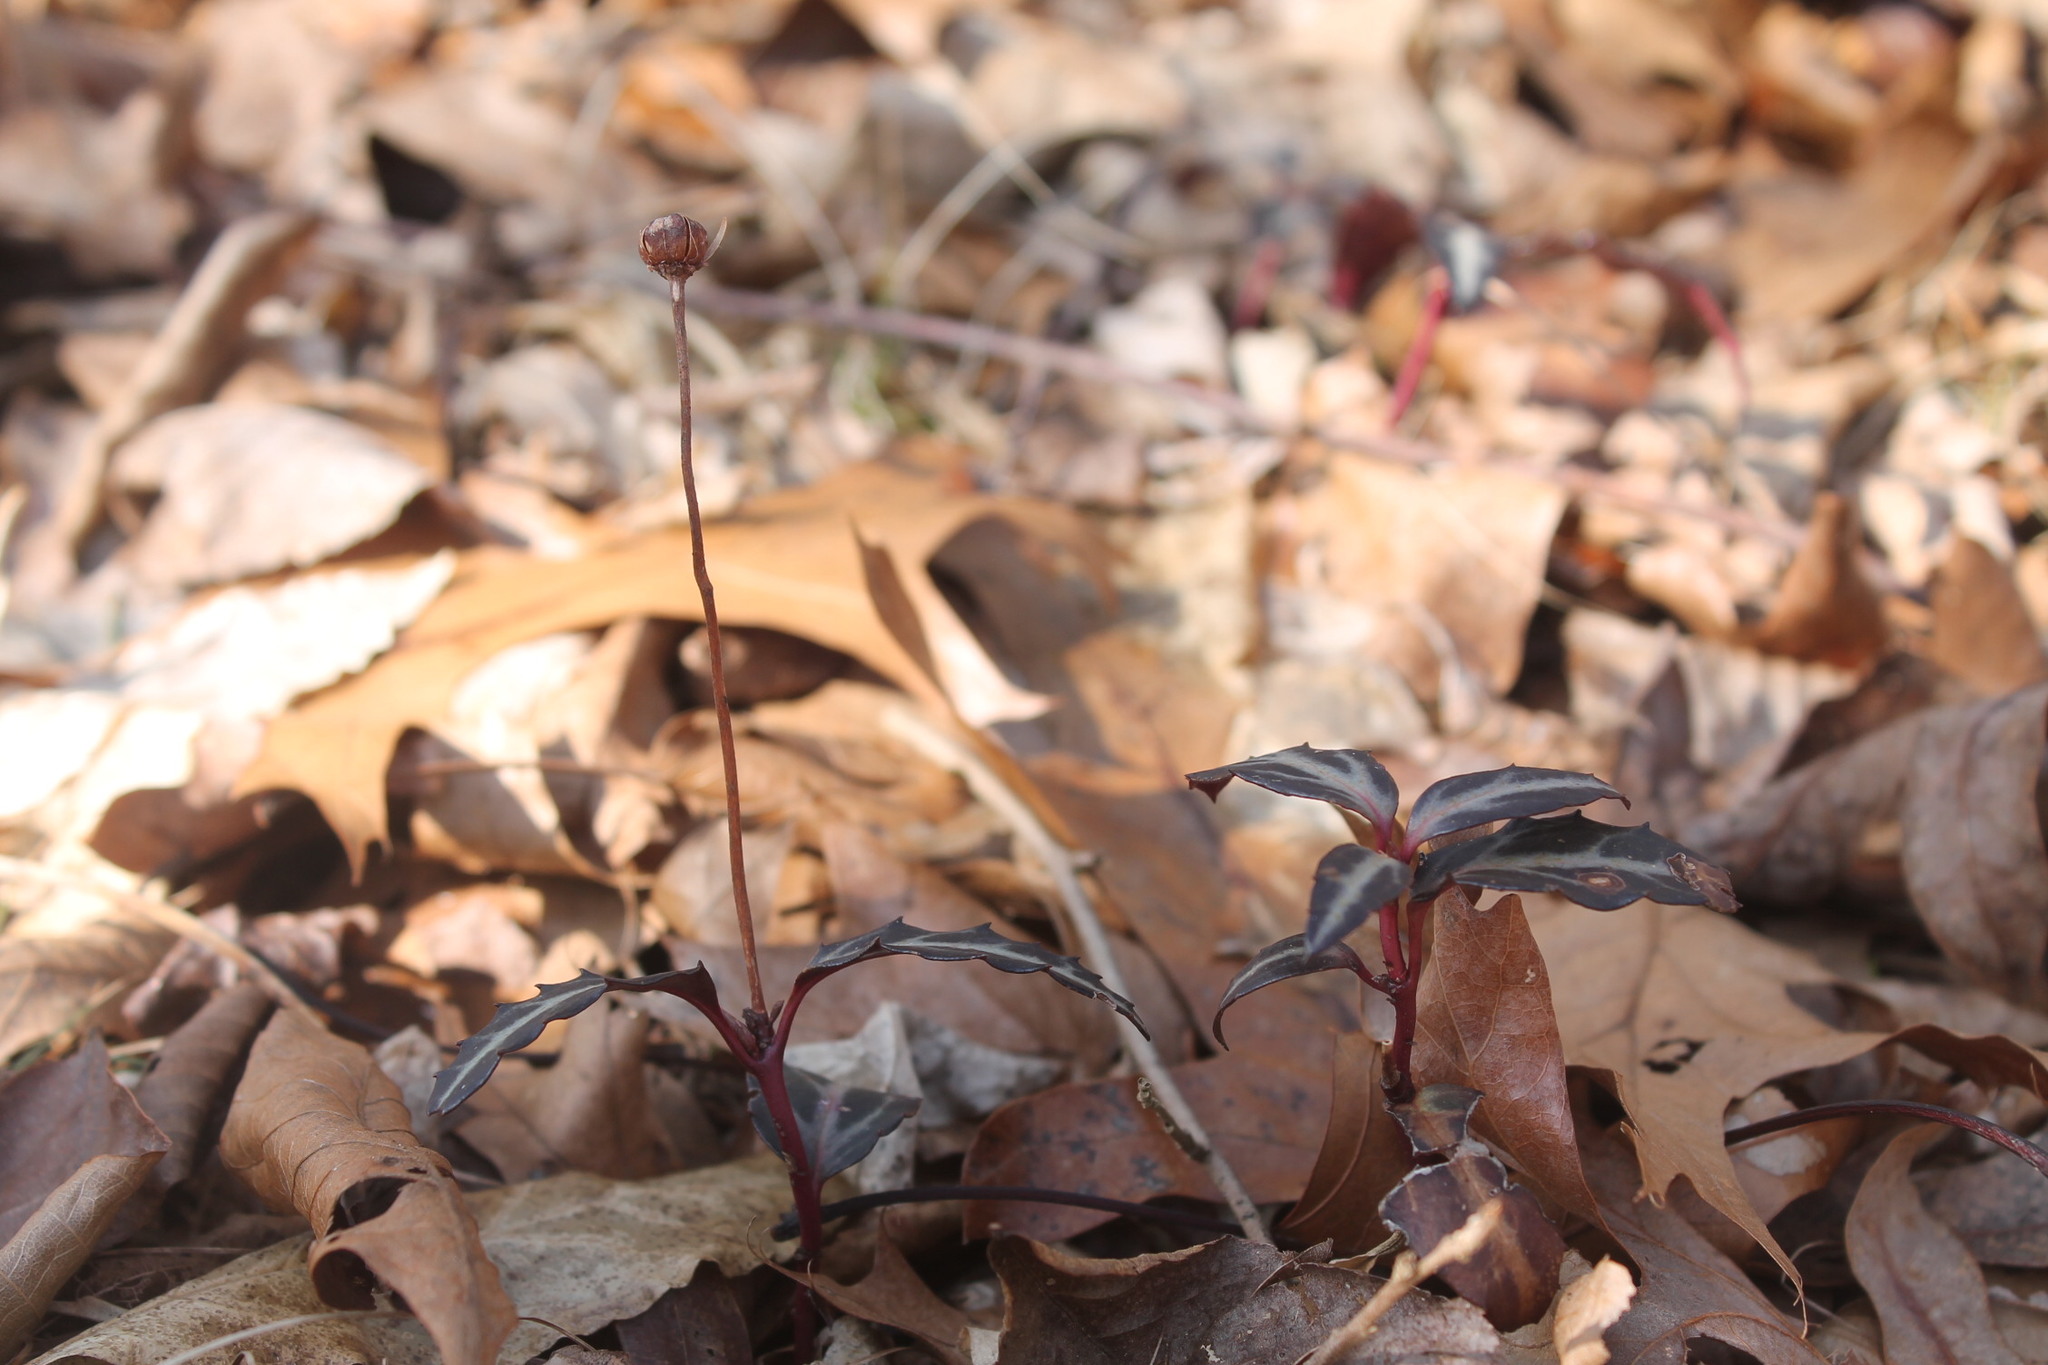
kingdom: Plantae
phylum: Tracheophyta
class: Magnoliopsida
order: Ericales
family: Ericaceae
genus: Chimaphila
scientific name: Chimaphila maculata
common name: Spotted pipsissewa
